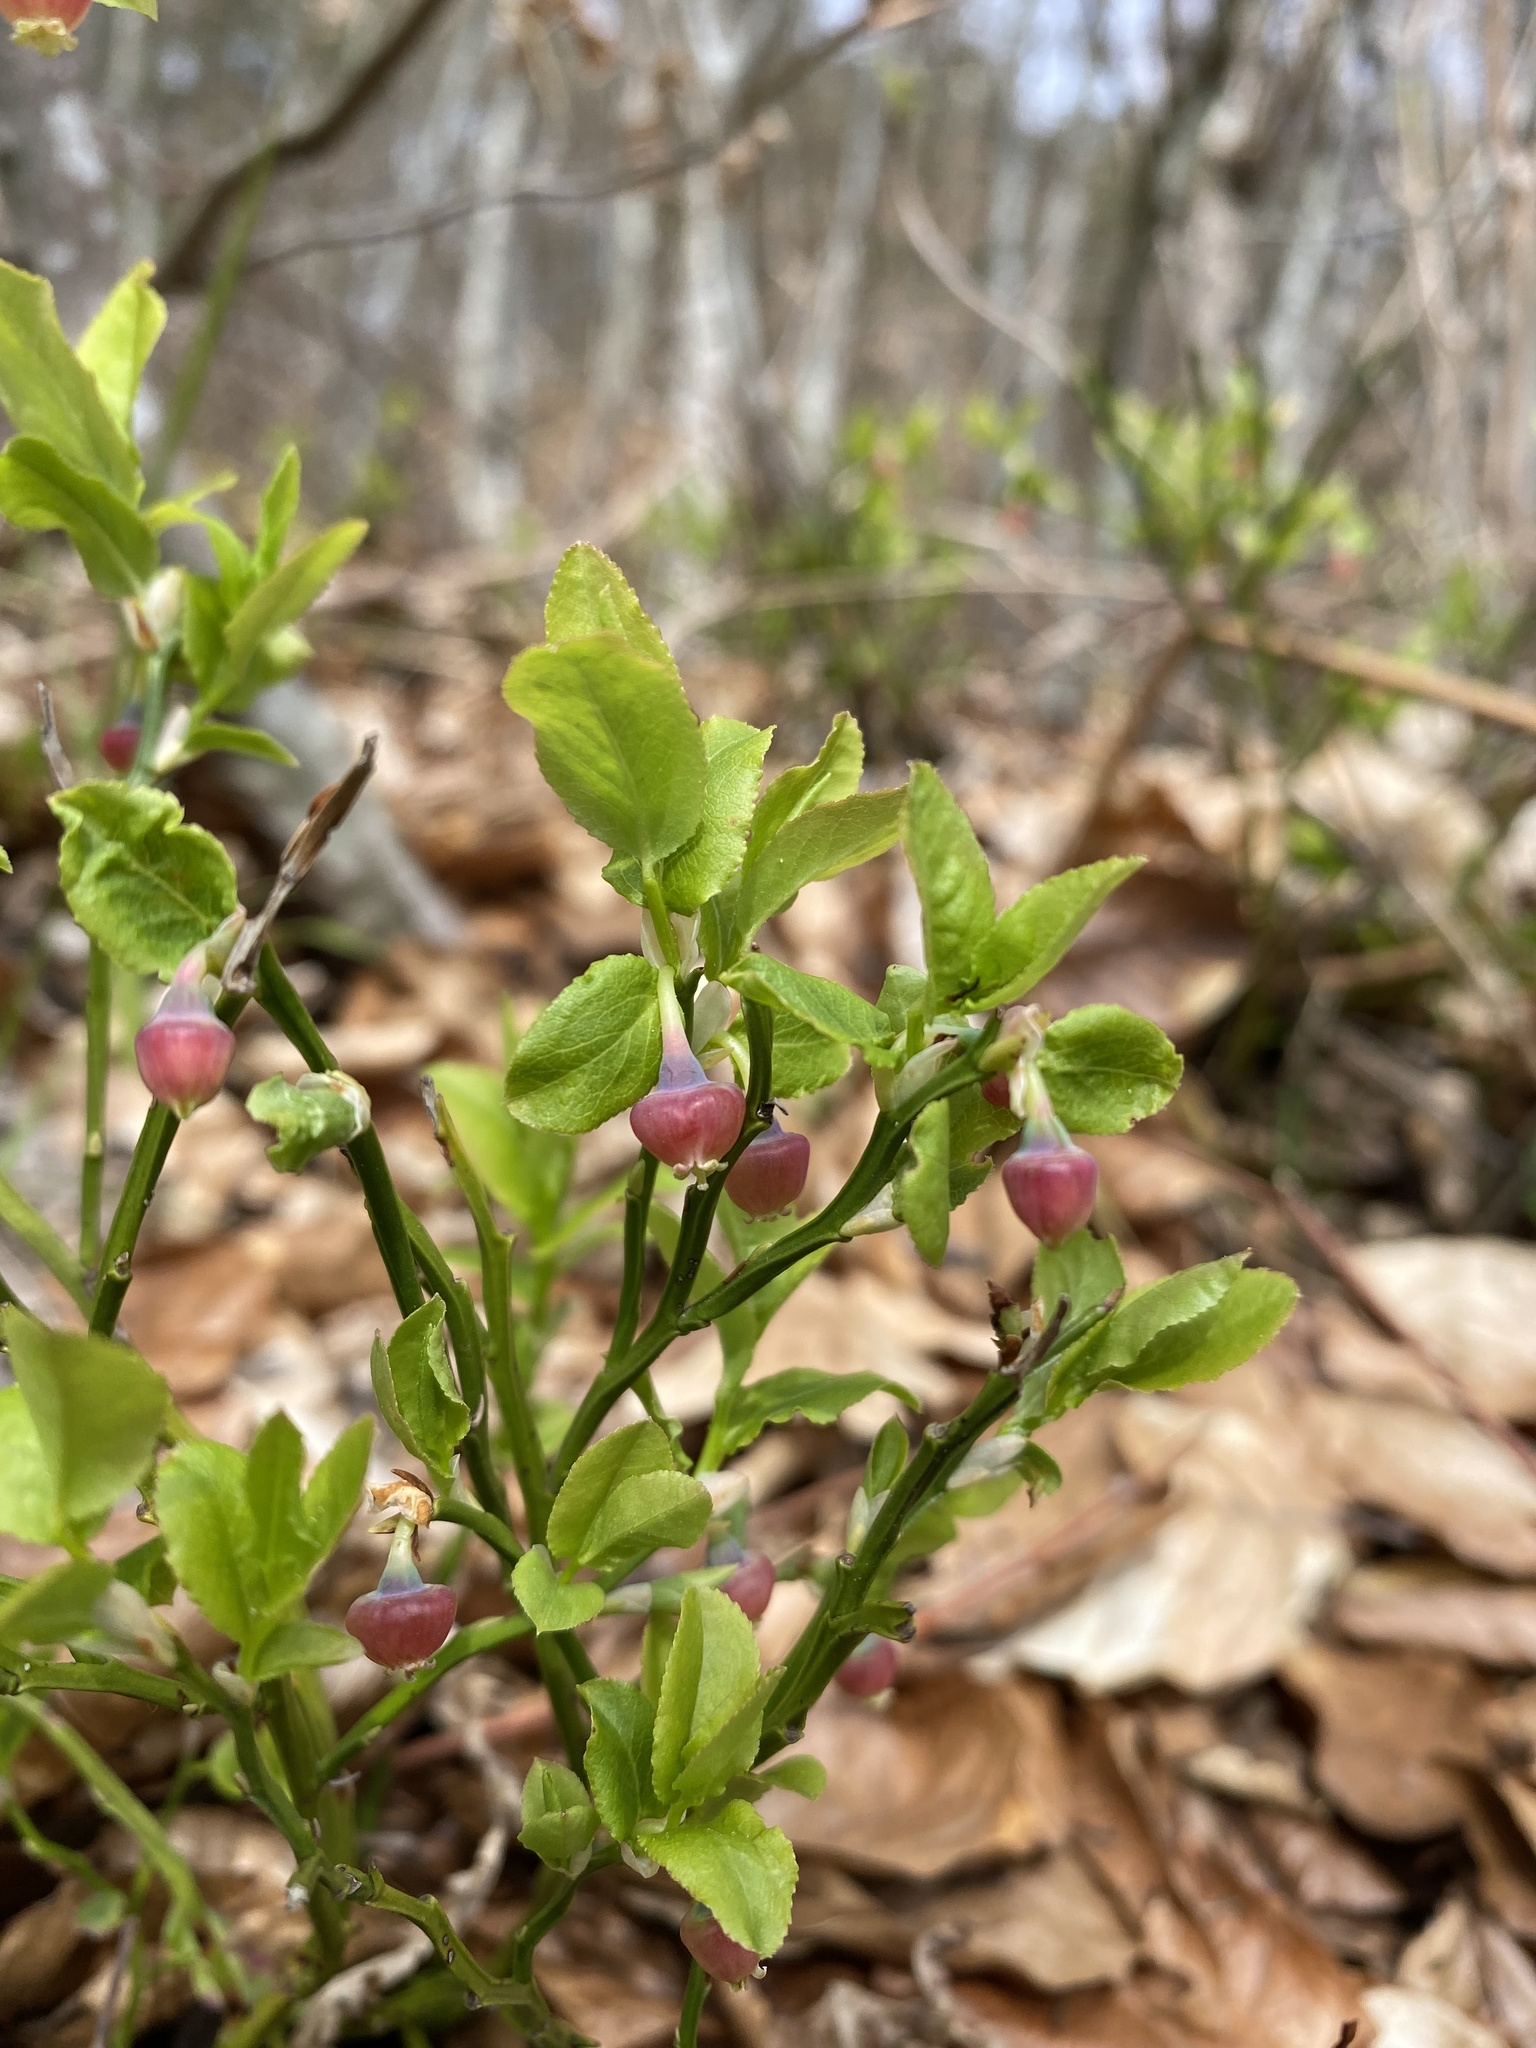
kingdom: Plantae
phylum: Tracheophyta
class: Magnoliopsida
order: Ericales
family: Ericaceae
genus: Vaccinium
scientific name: Vaccinium myrtillus
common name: Bilberry
